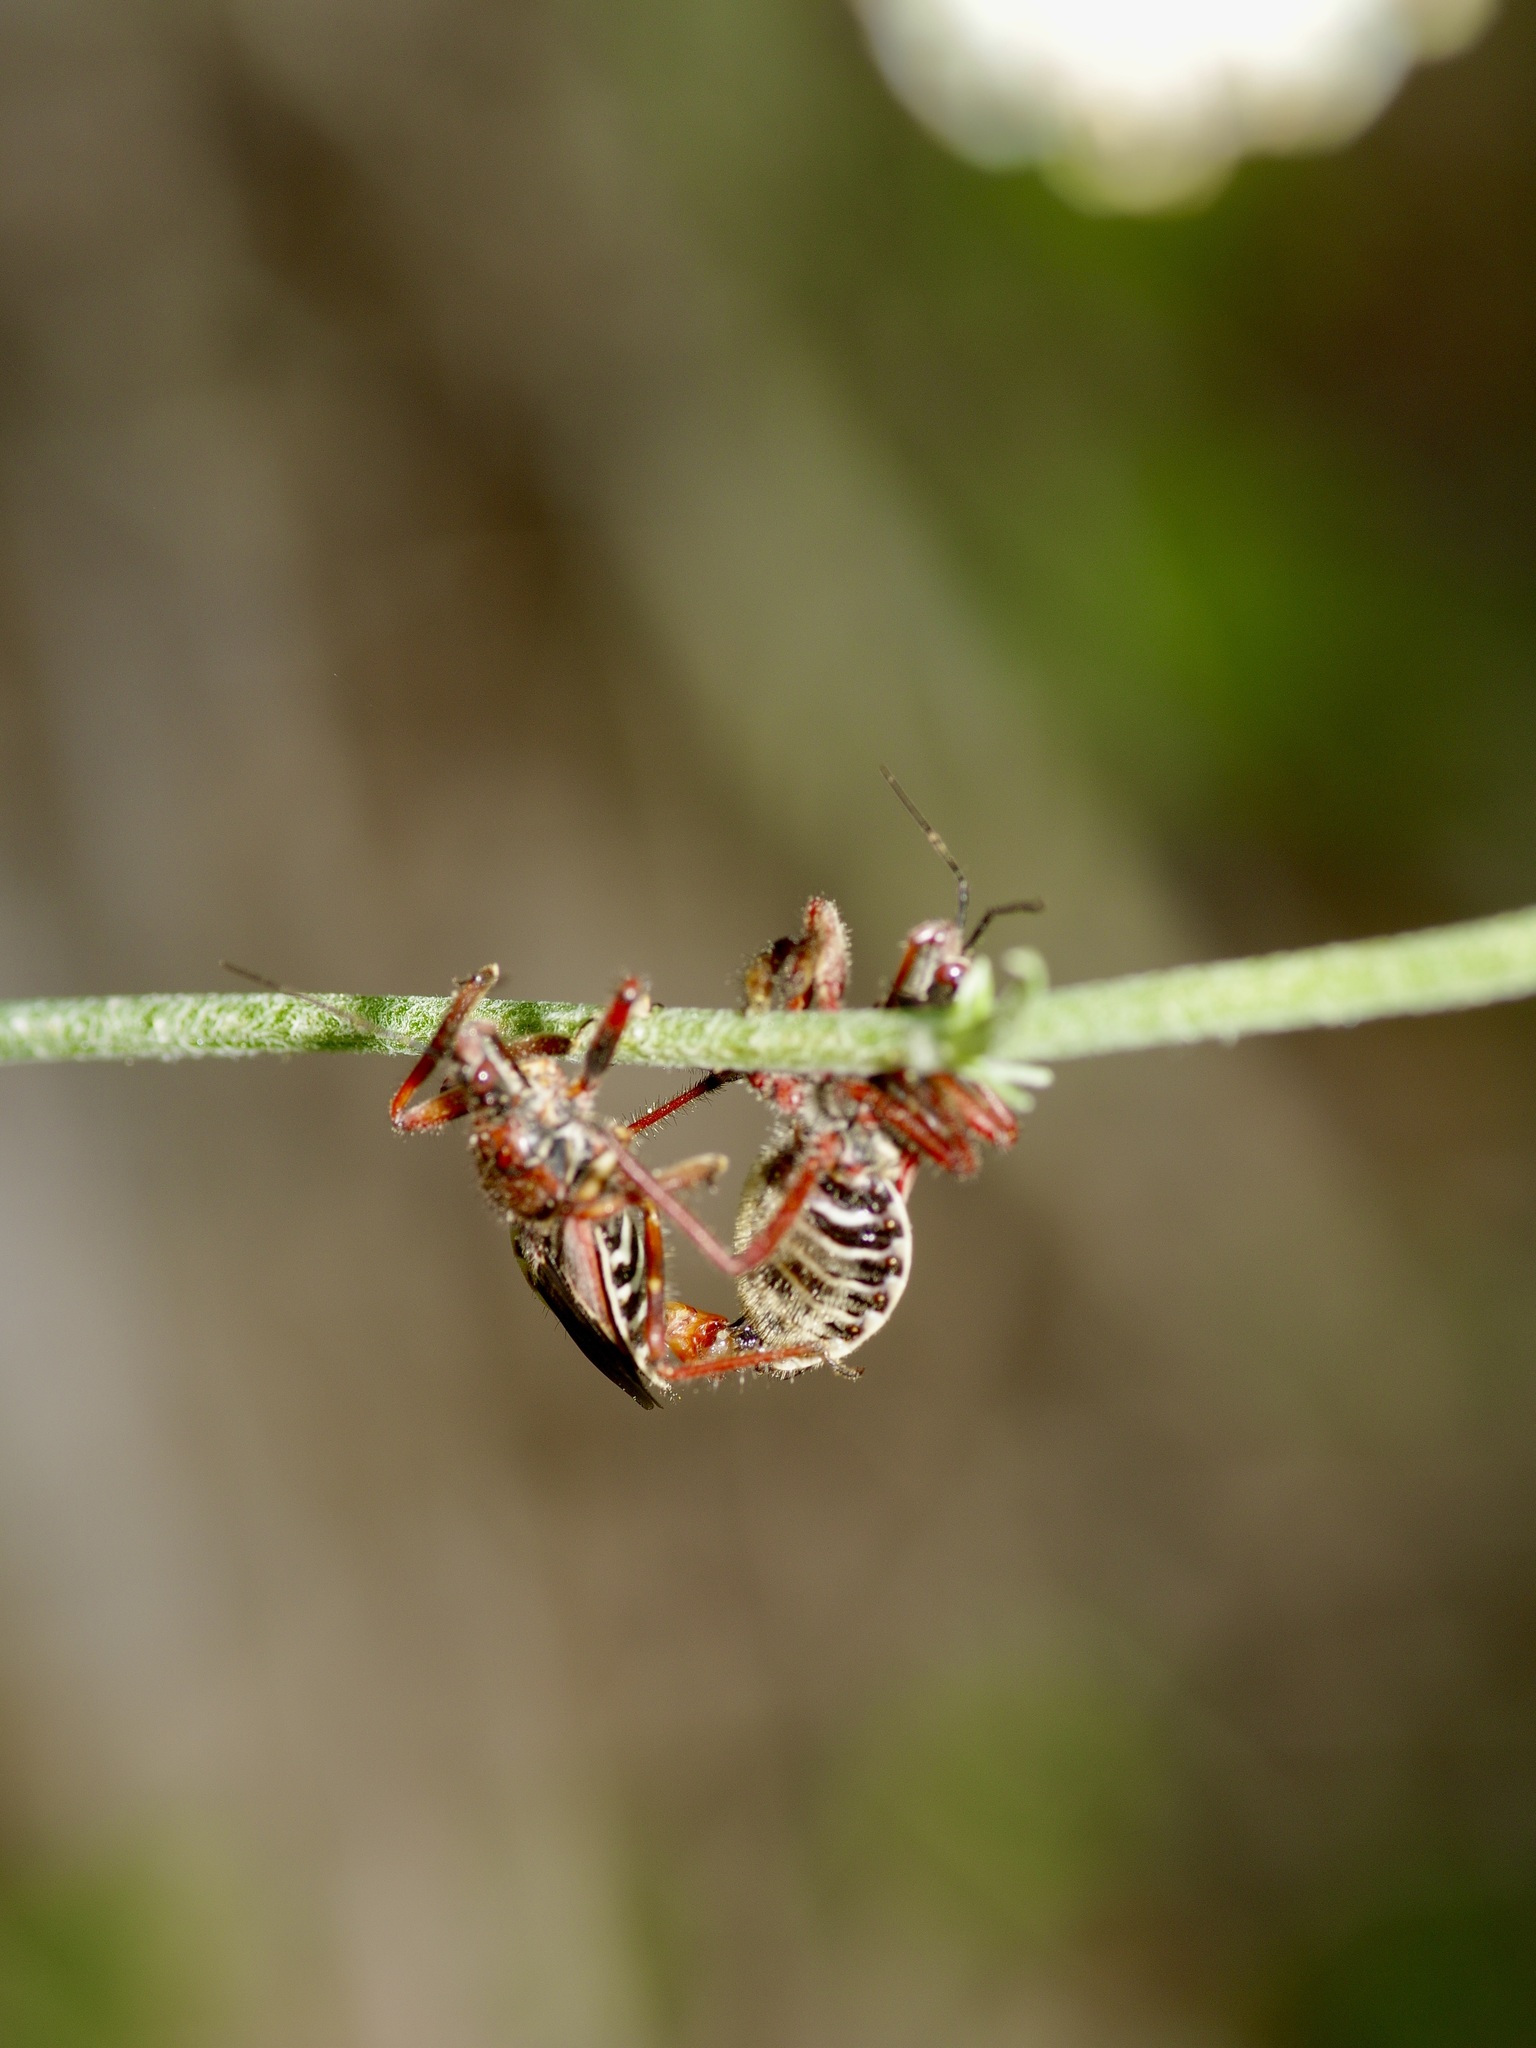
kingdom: Animalia
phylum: Arthropoda
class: Insecta
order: Hemiptera
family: Reduviidae
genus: Apiomerus
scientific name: Apiomerus spissipes
